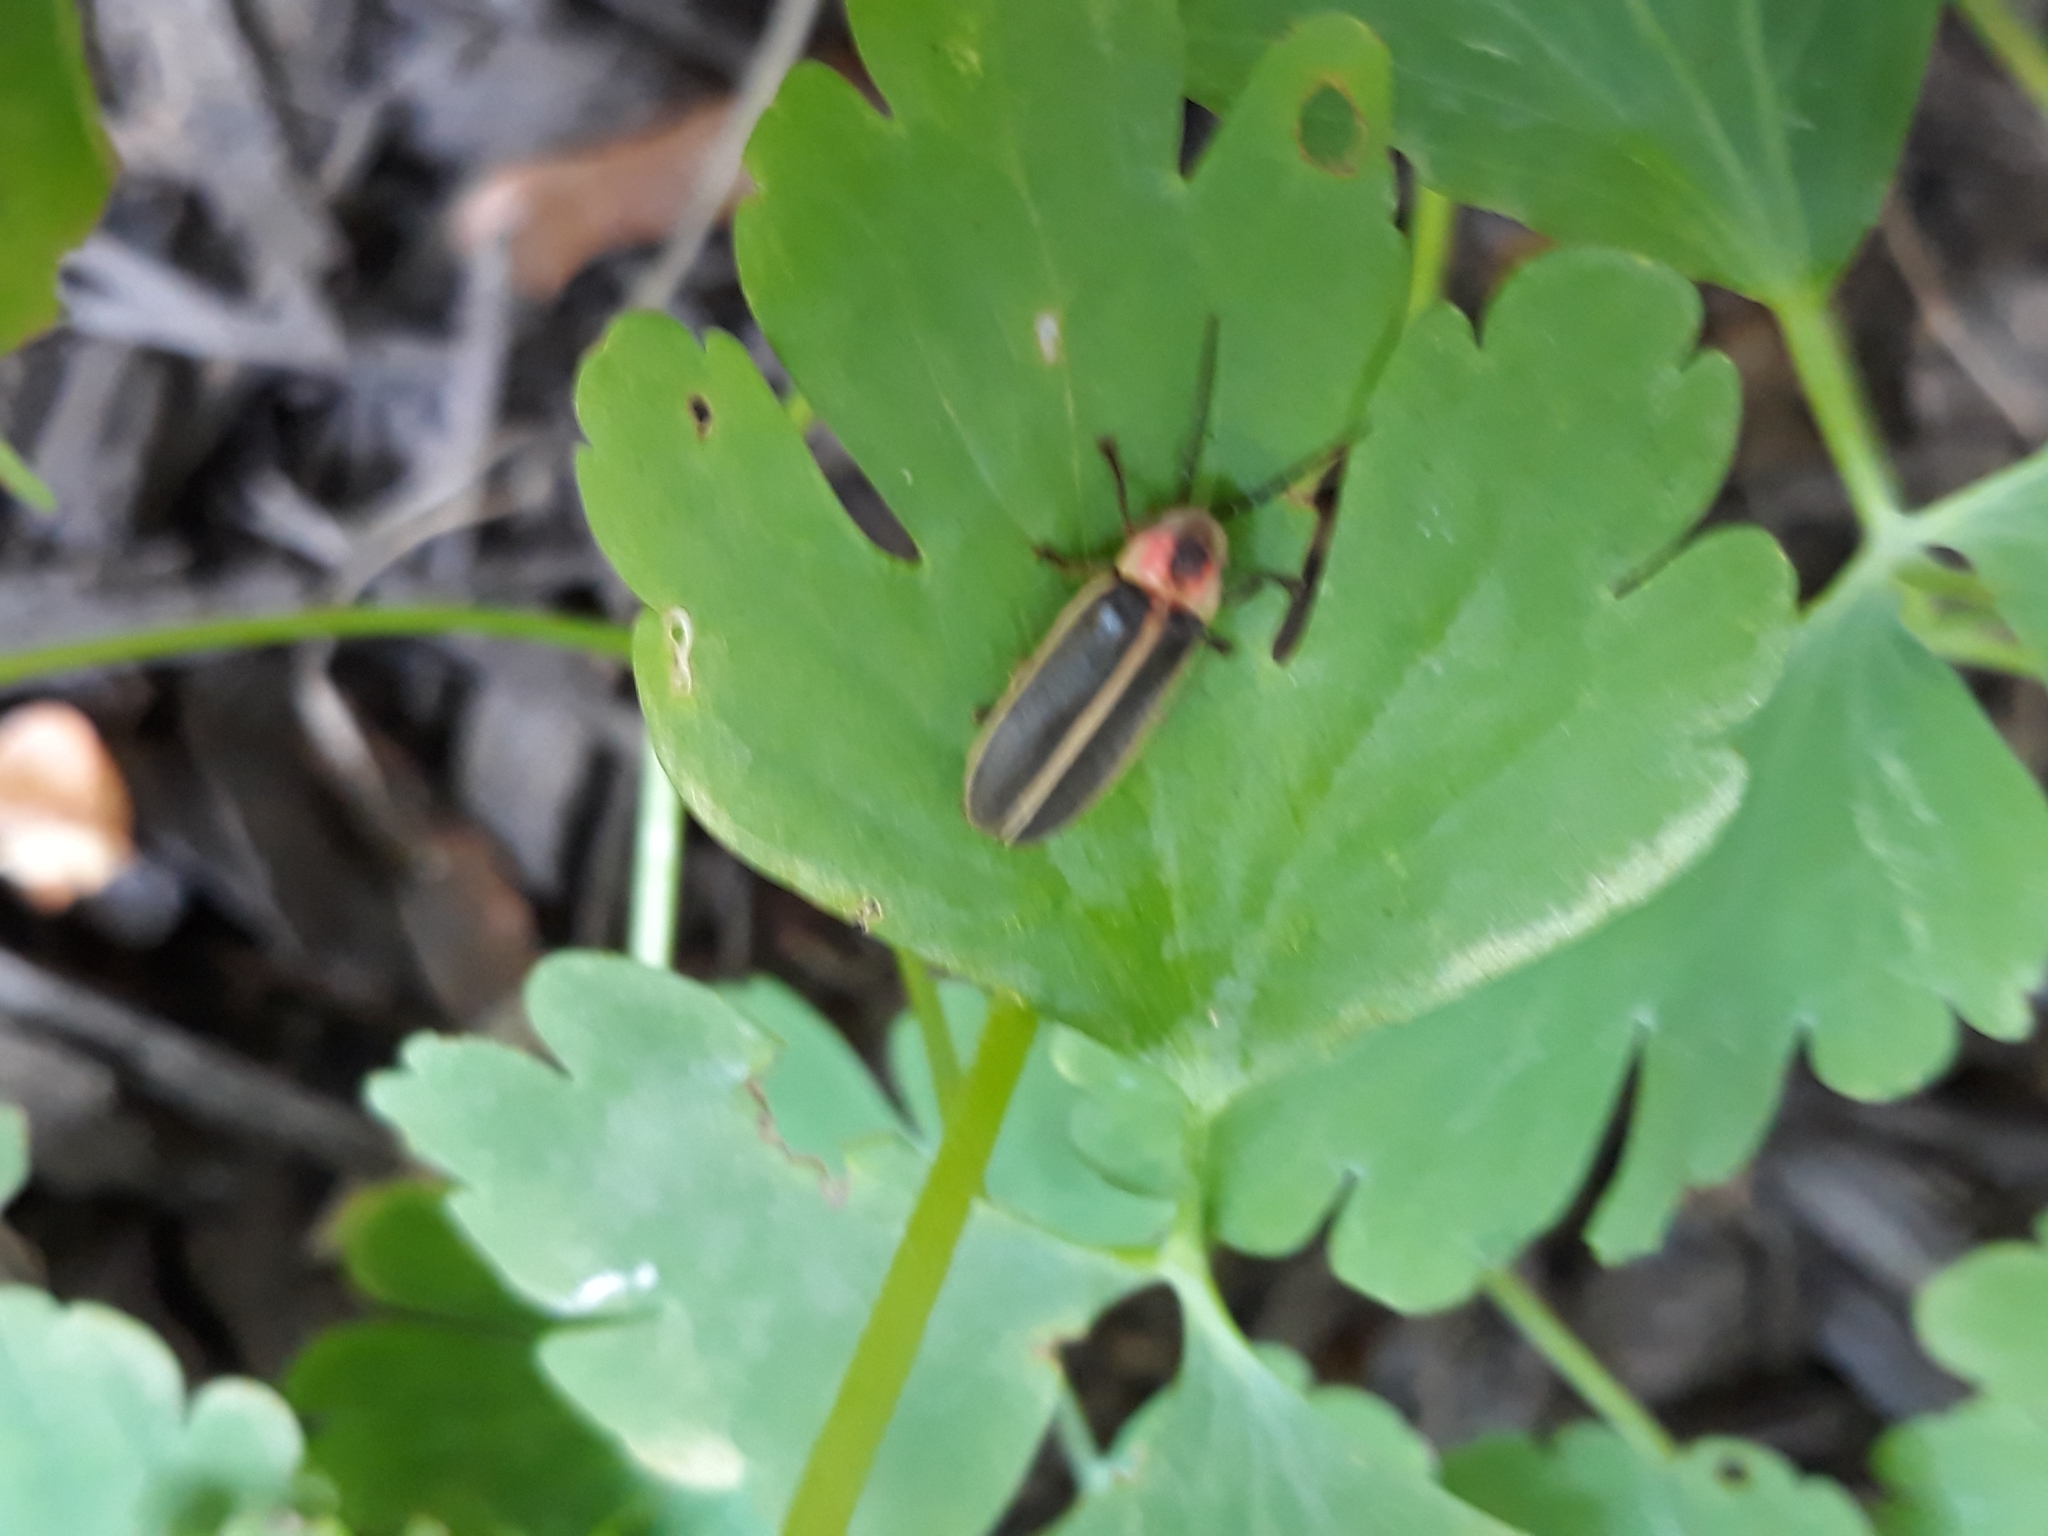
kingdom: Animalia
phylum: Arthropoda
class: Insecta
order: Coleoptera
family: Lampyridae
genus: Photinus
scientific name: Photinus pyralis
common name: Big dipper firefly
